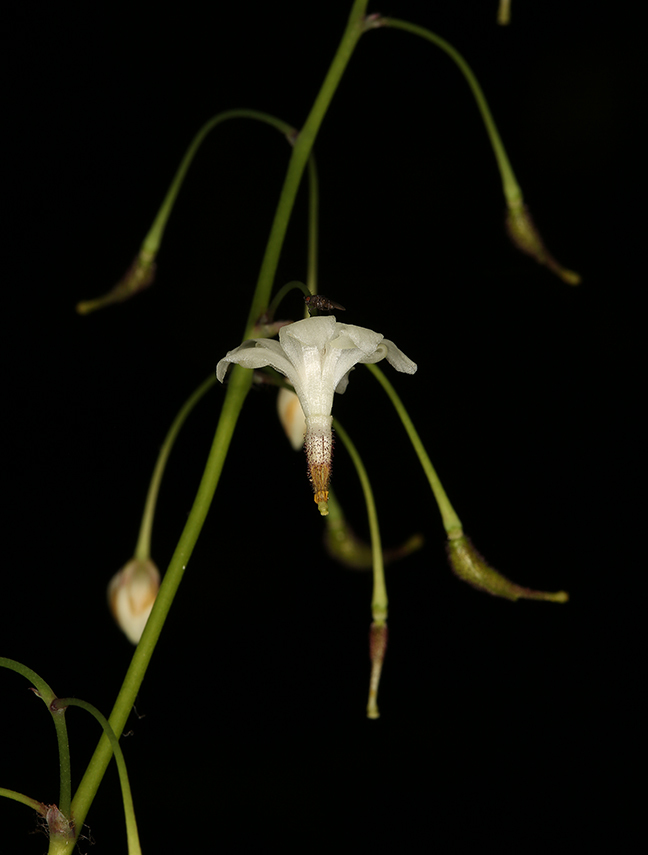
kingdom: Plantae
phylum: Tracheophyta
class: Magnoliopsida
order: Ranunculales
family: Berberidaceae
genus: Vancouveria
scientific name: Vancouveria hexandra
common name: Northern inside-out-flower
